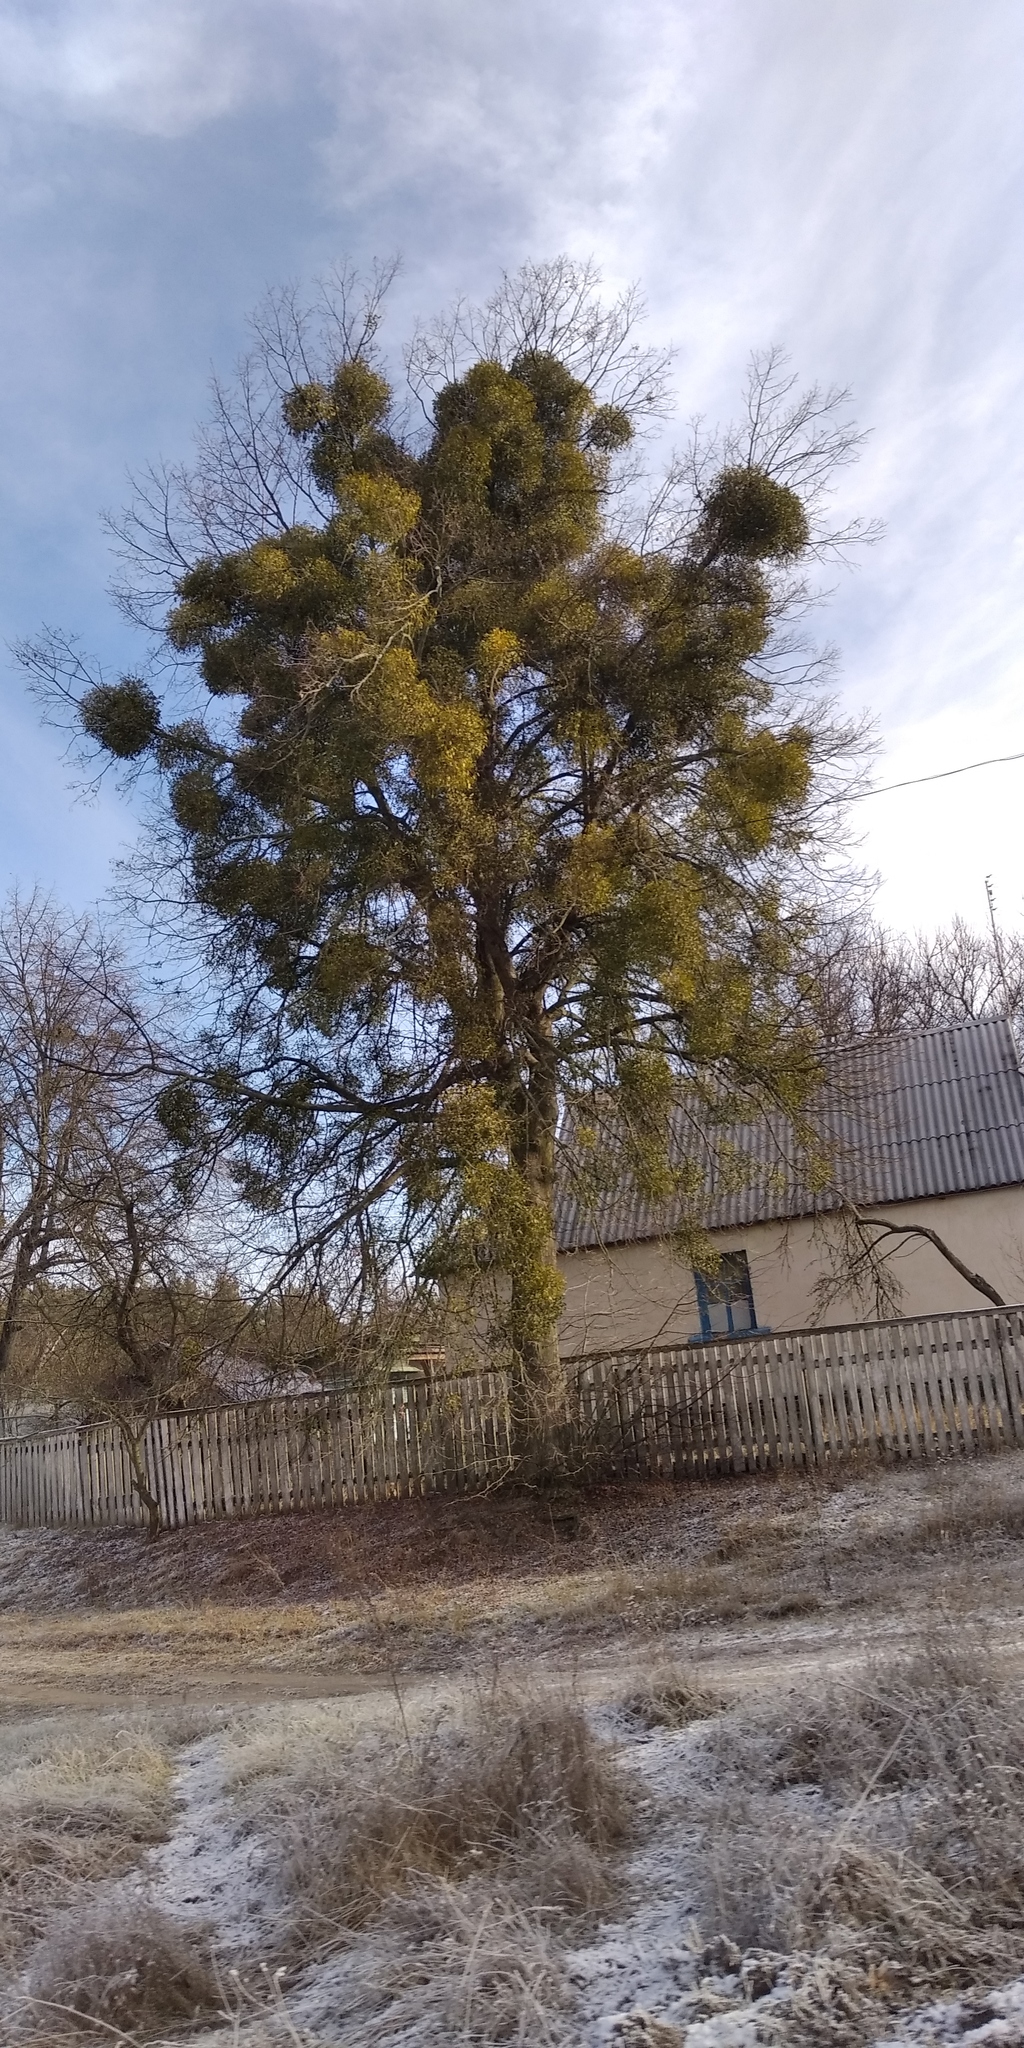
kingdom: Plantae
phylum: Tracheophyta
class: Magnoliopsida
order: Santalales
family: Viscaceae
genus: Viscum
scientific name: Viscum album
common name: Mistletoe
